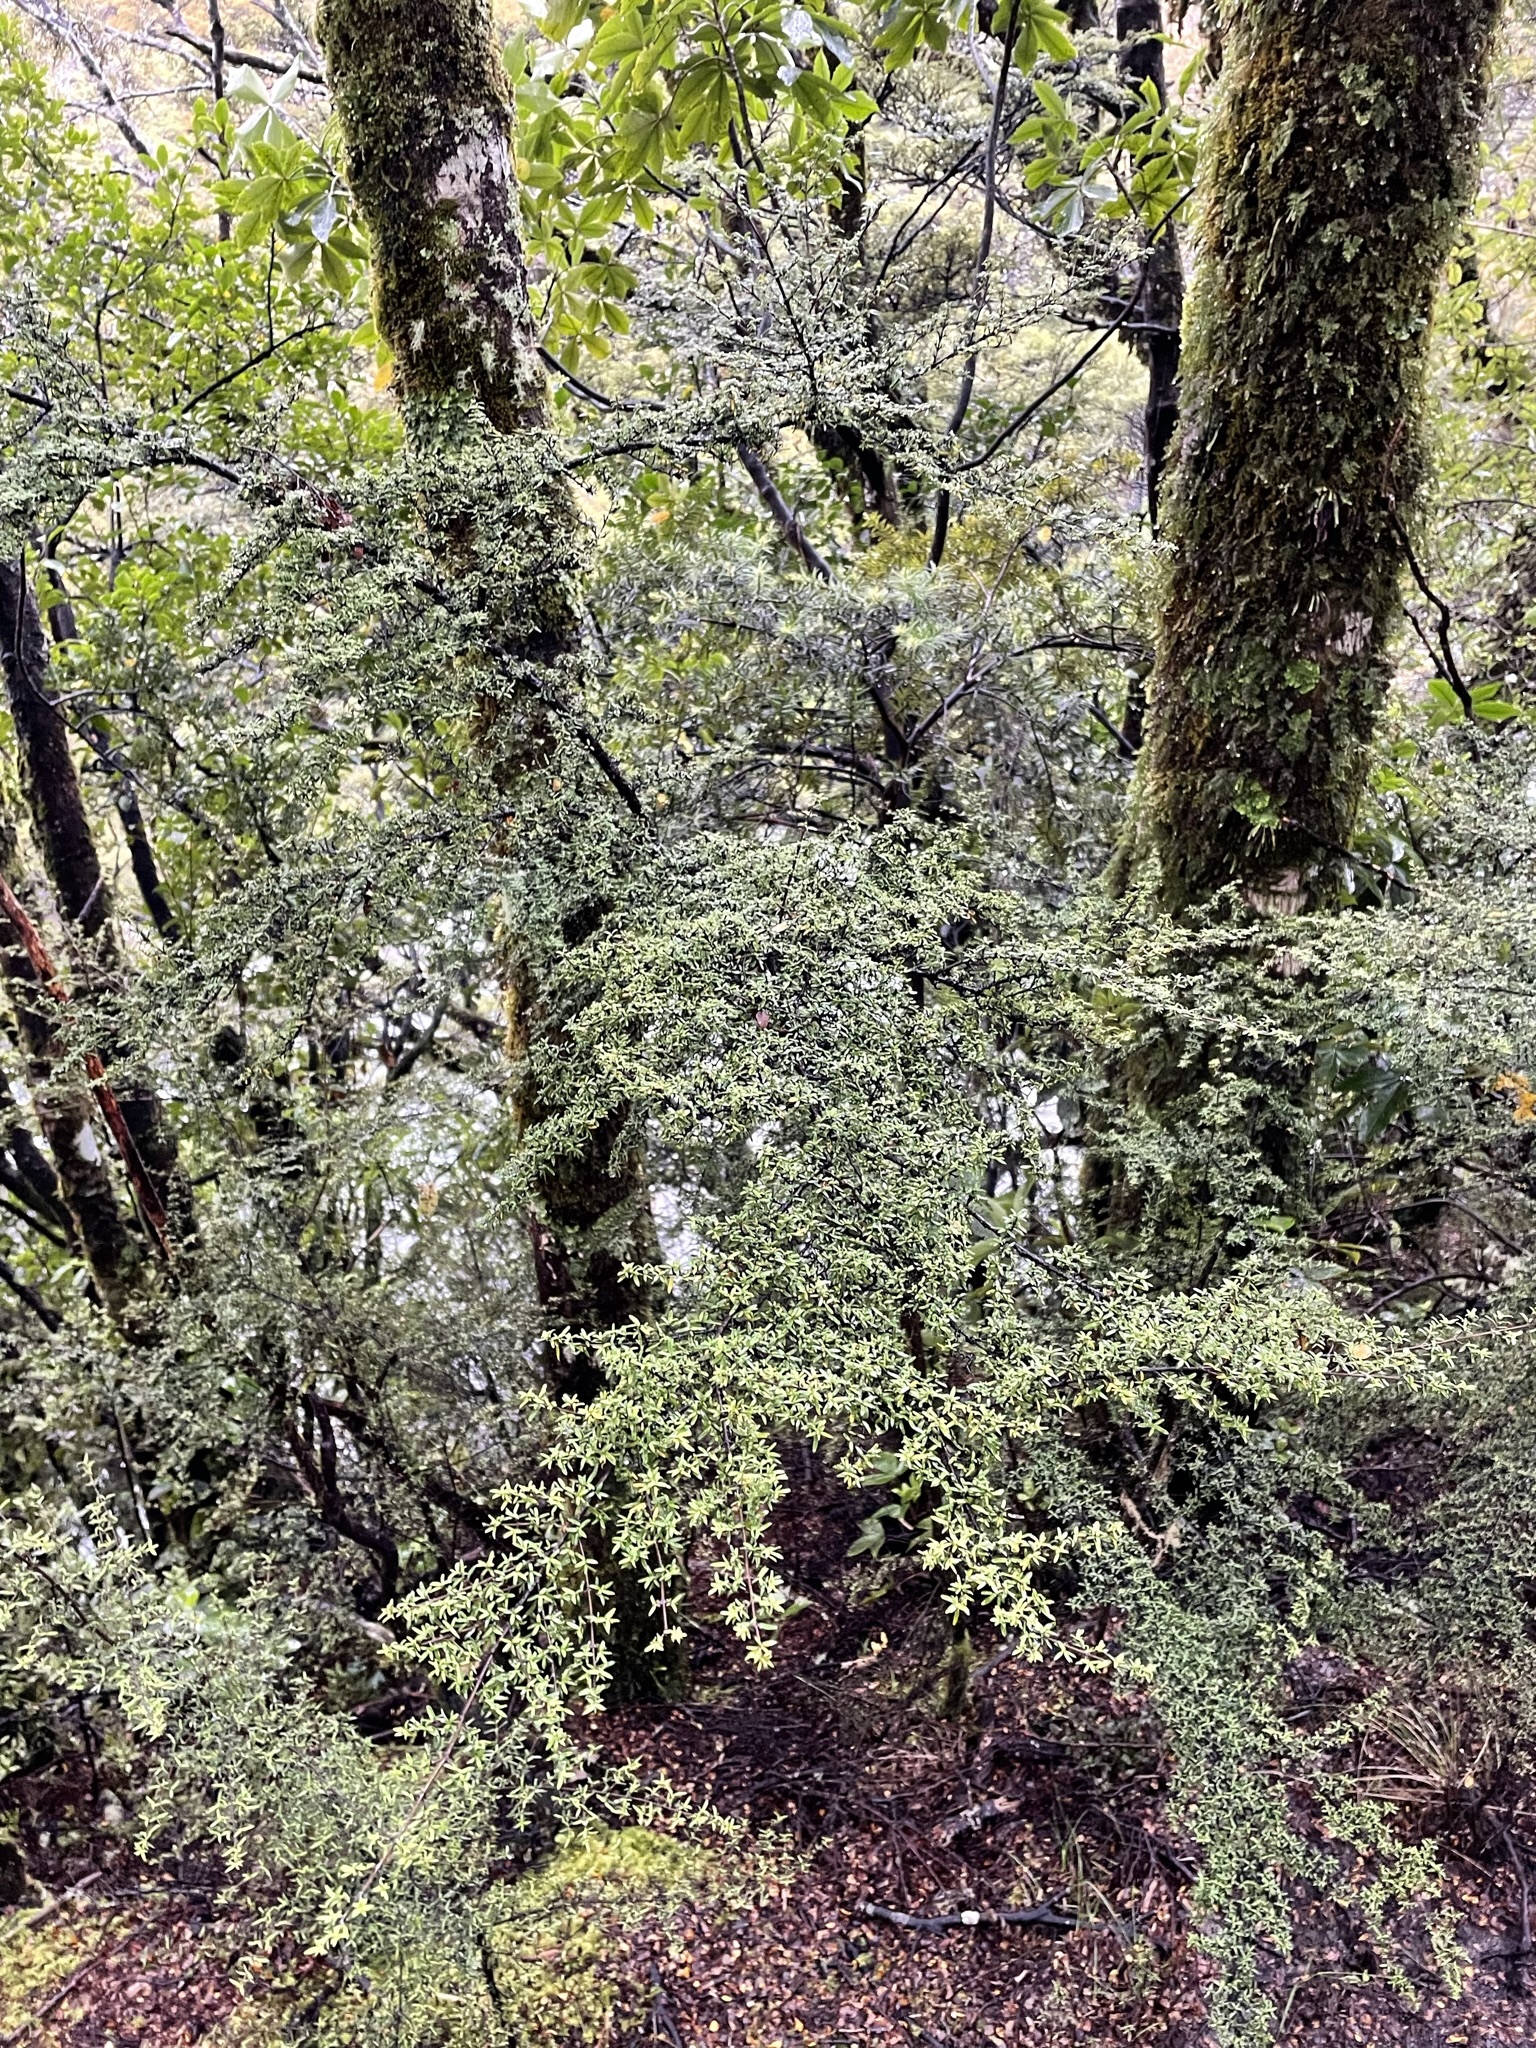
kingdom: Plantae
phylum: Tracheophyta
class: Magnoliopsida
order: Gentianales
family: Rubiaceae
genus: Coprosma
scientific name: Coprosma microcarpa
